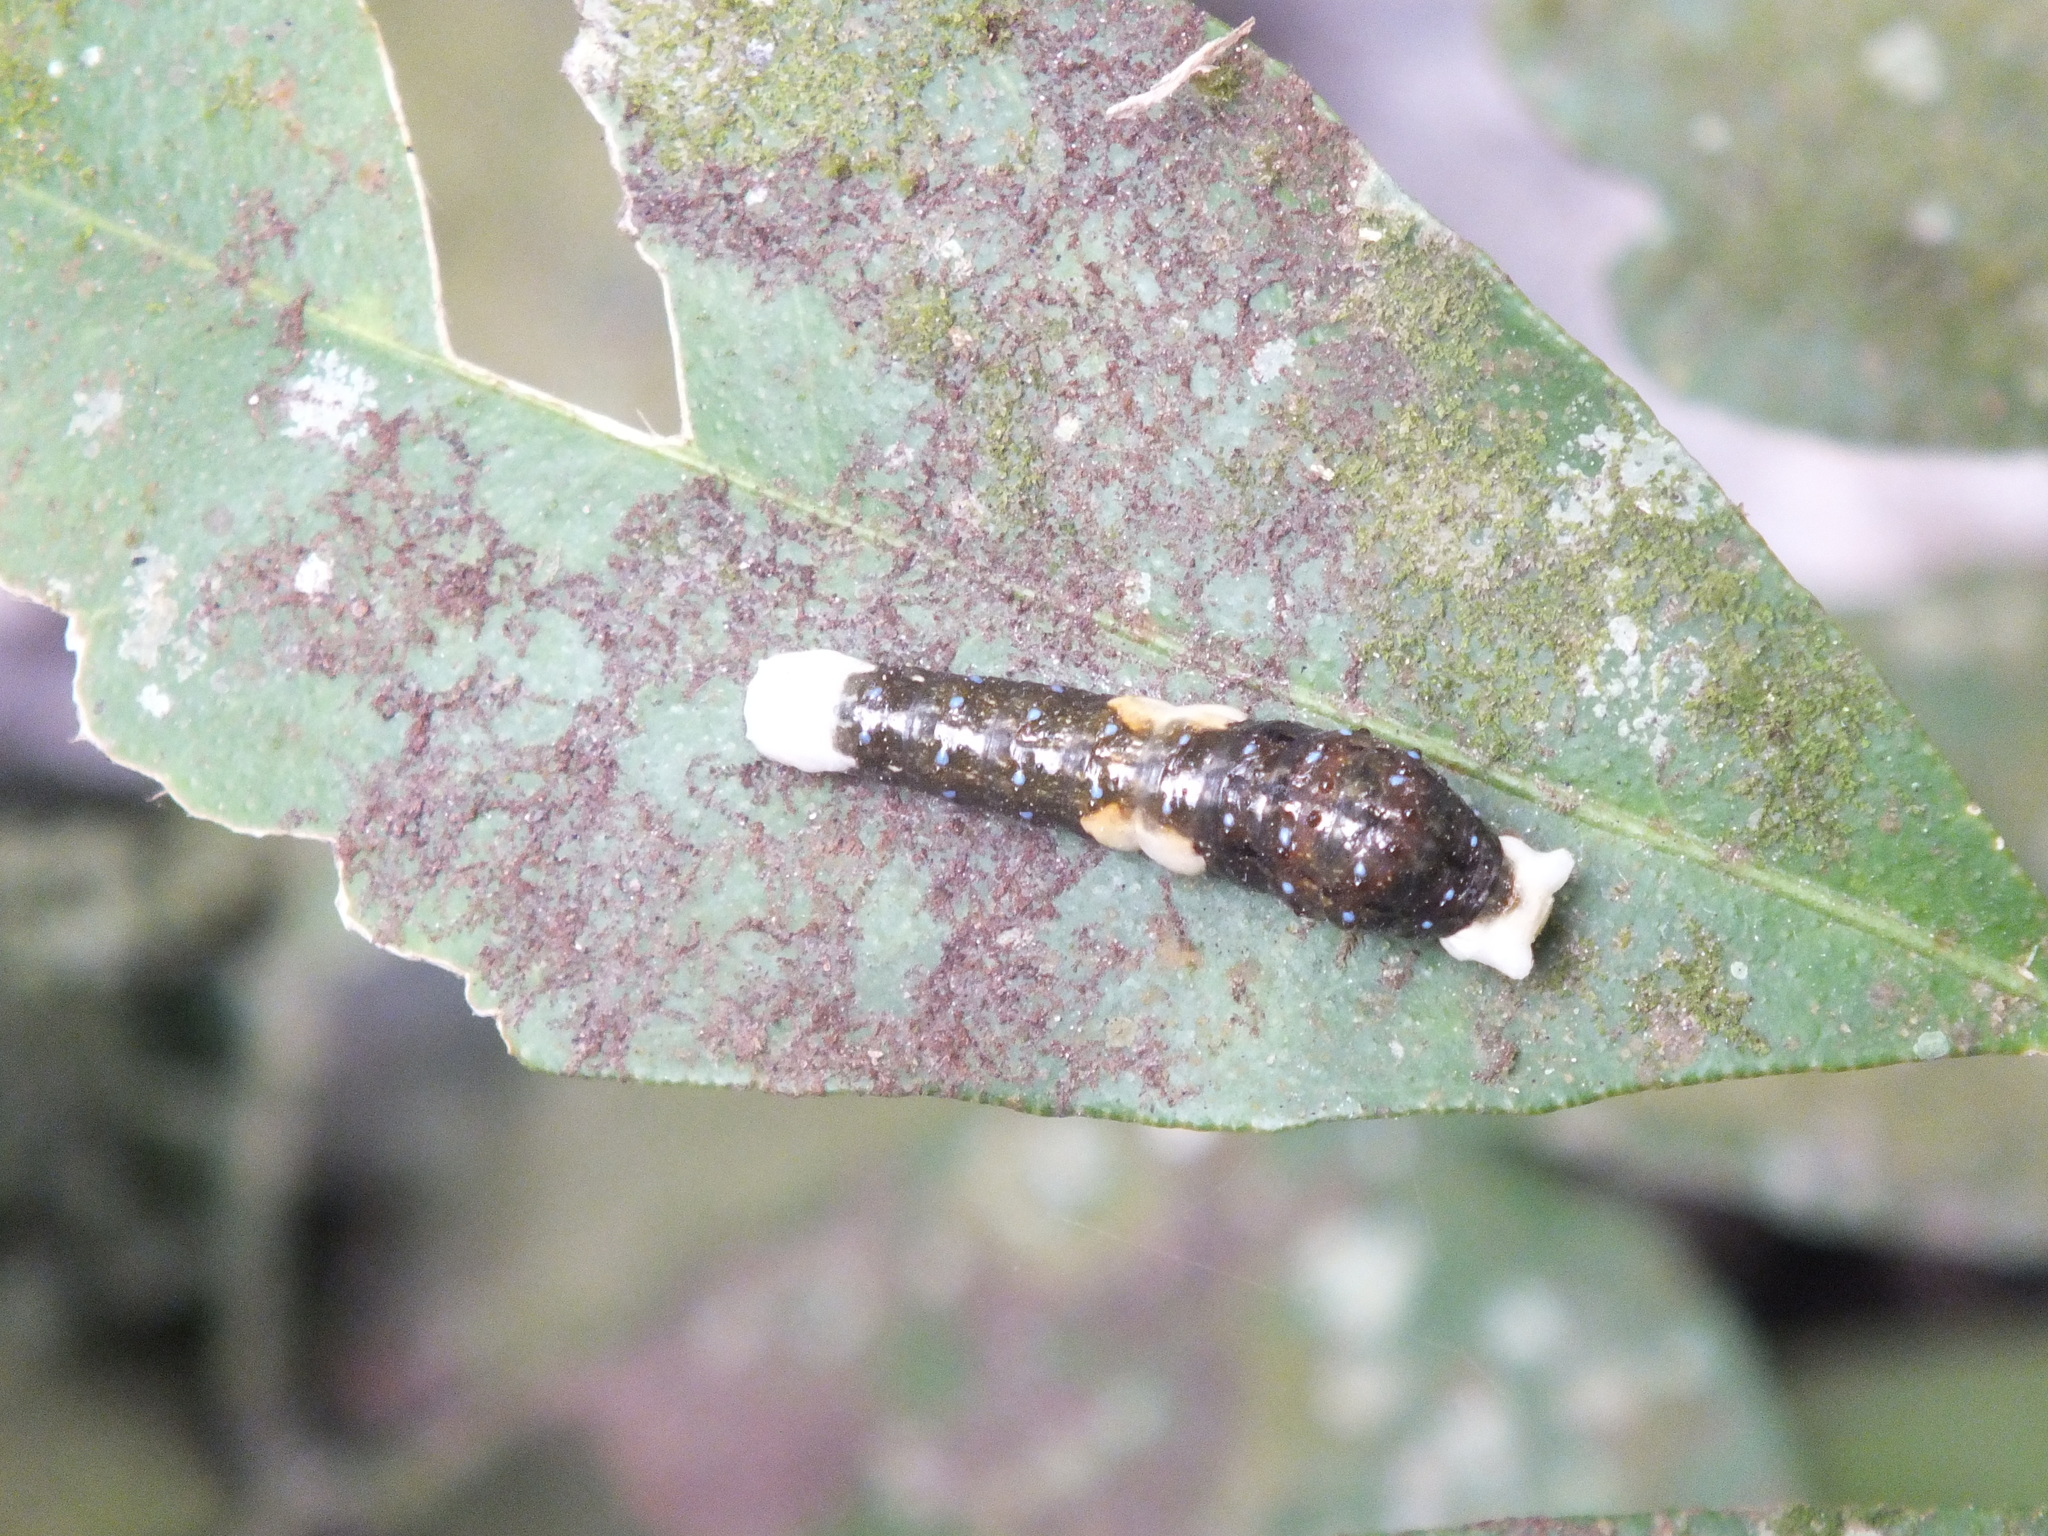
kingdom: Animalia
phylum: Arthropoda
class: Insecta
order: Lepidoptera
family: Papilionidae
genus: Heraclides
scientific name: Heraclides
